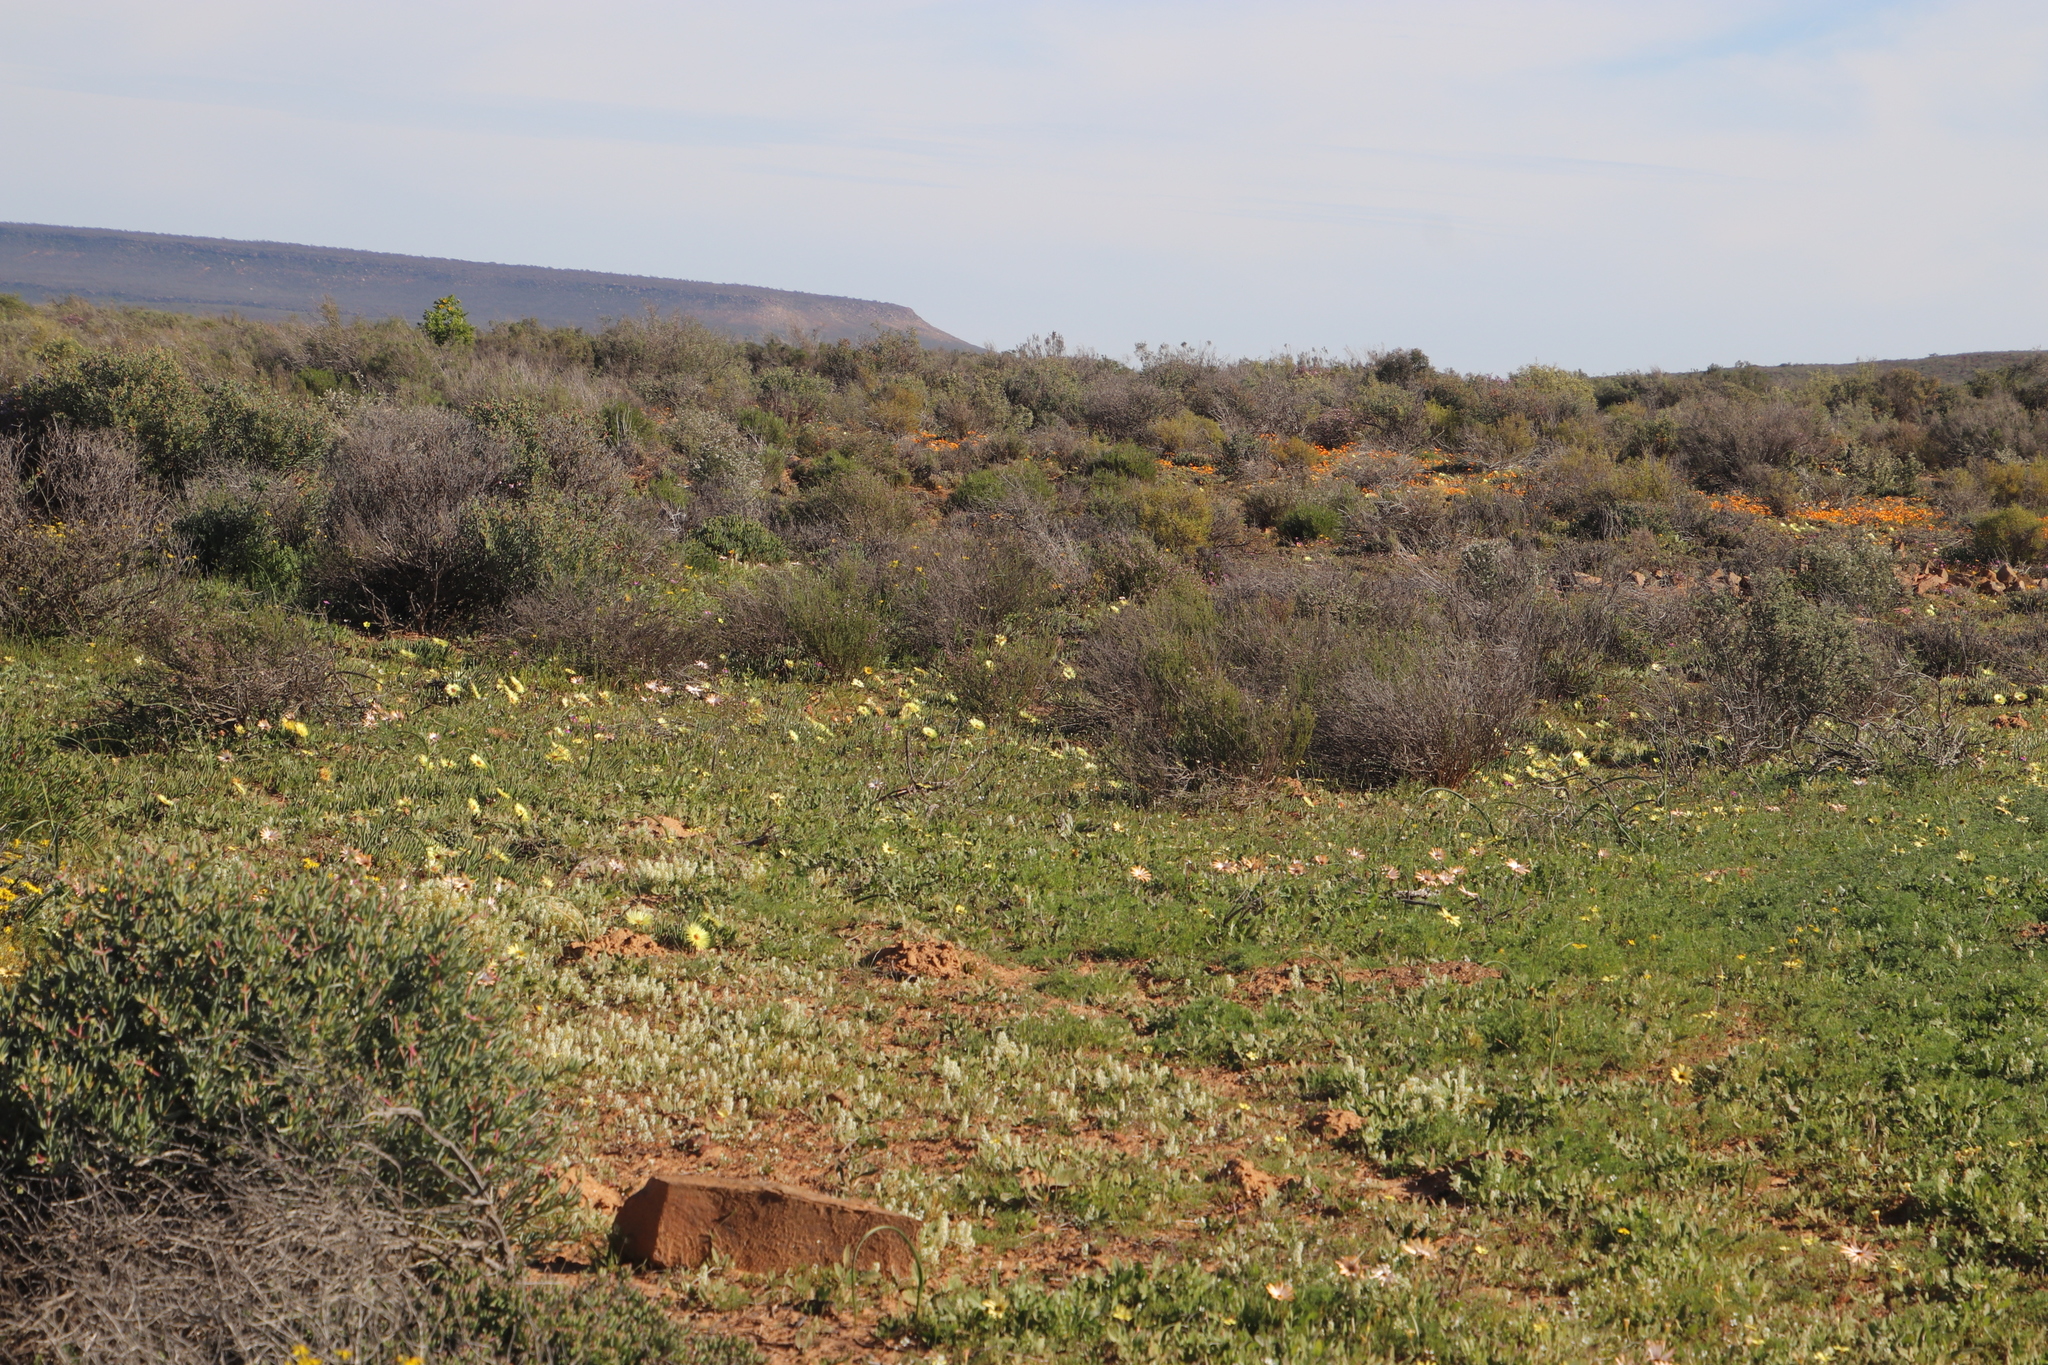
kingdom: Plantae
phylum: Tracheophyta
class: Magnoliopsida
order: Oxalidales
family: Oxalidaceae
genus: Oxalis
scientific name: Oxalis obtusa
